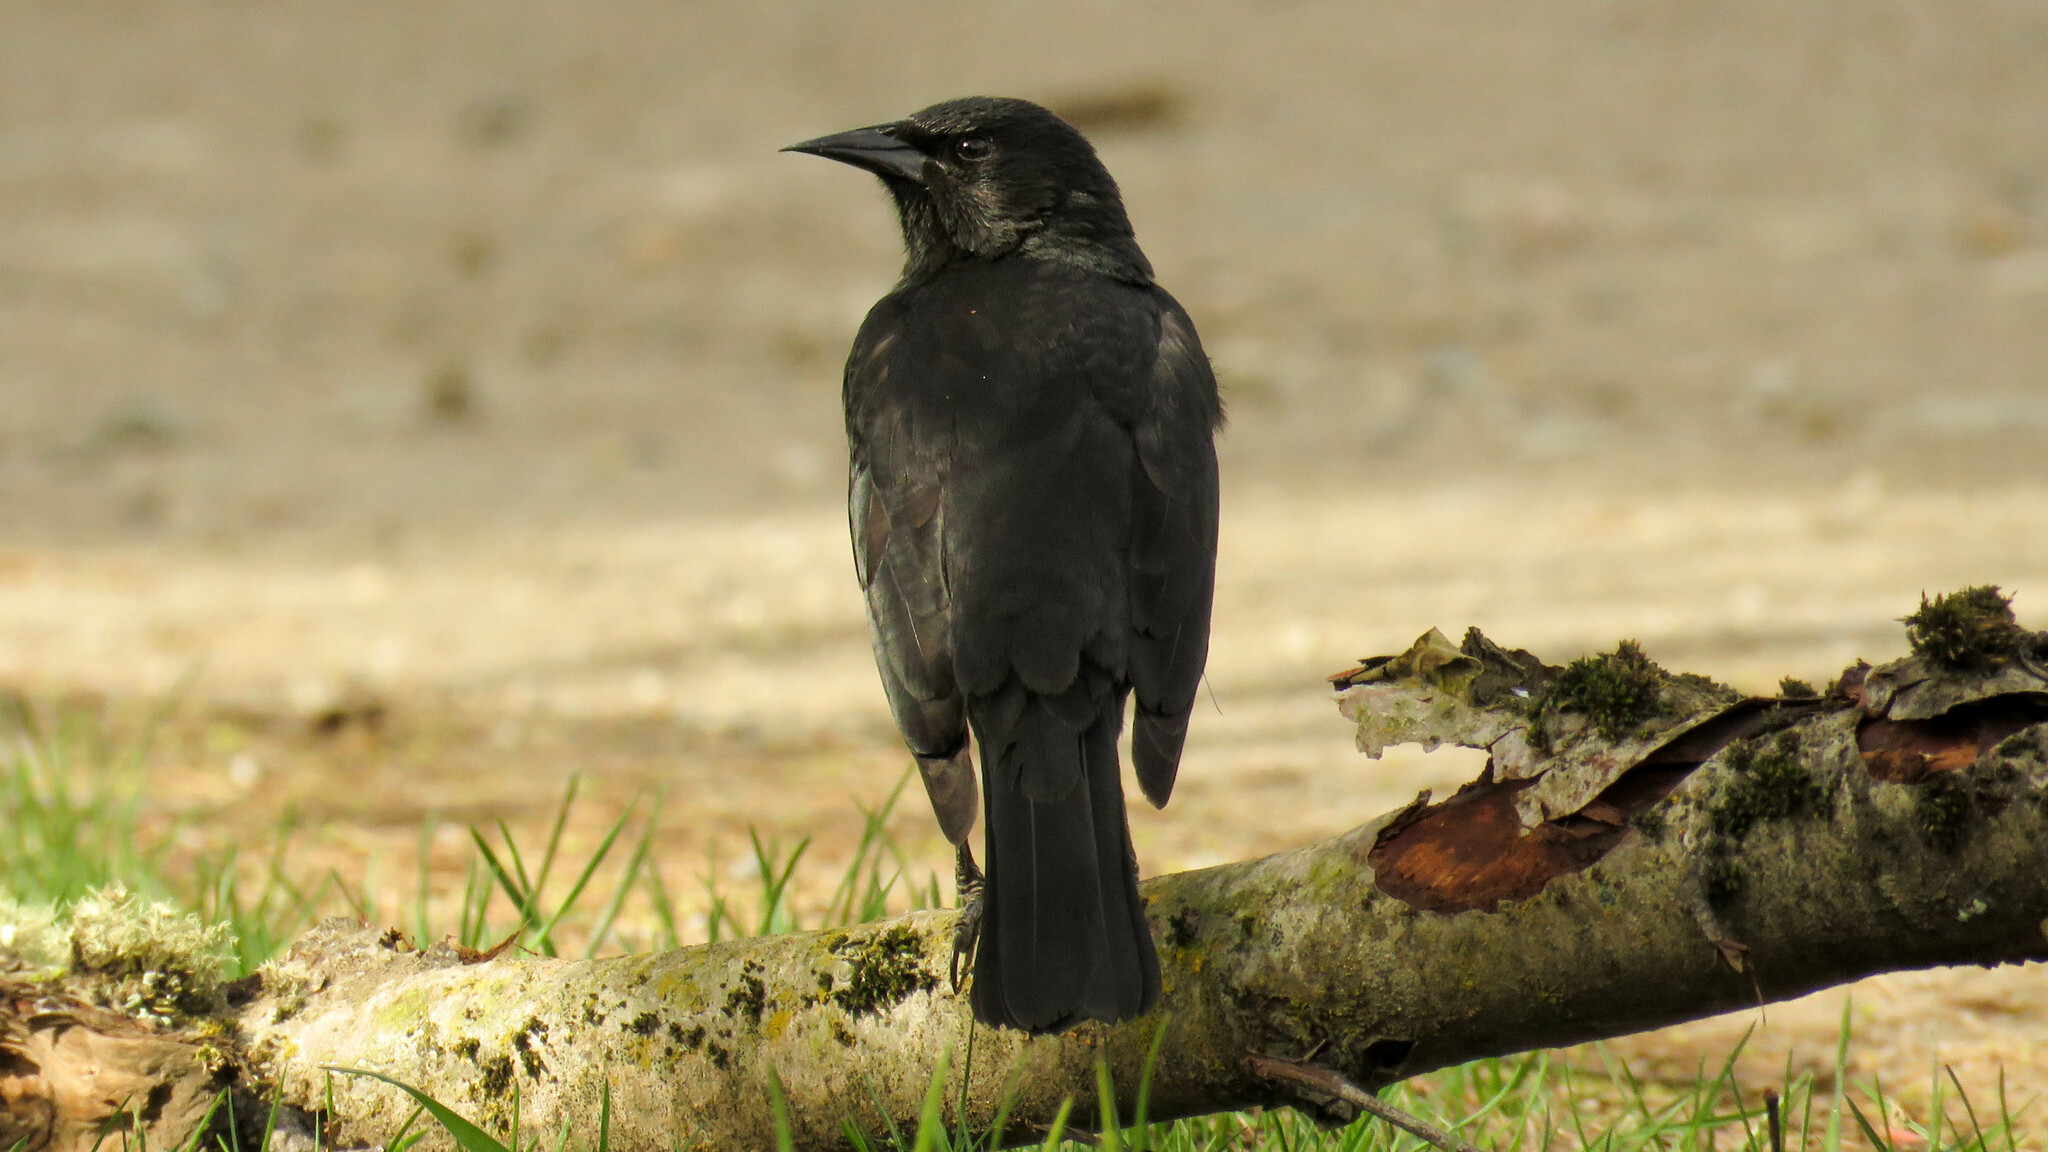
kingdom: Animalia
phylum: Chordata
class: Aves
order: Passeriformes
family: Icteridae
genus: Curaeus
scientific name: Curaeus curaeus
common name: Austral blackbird
